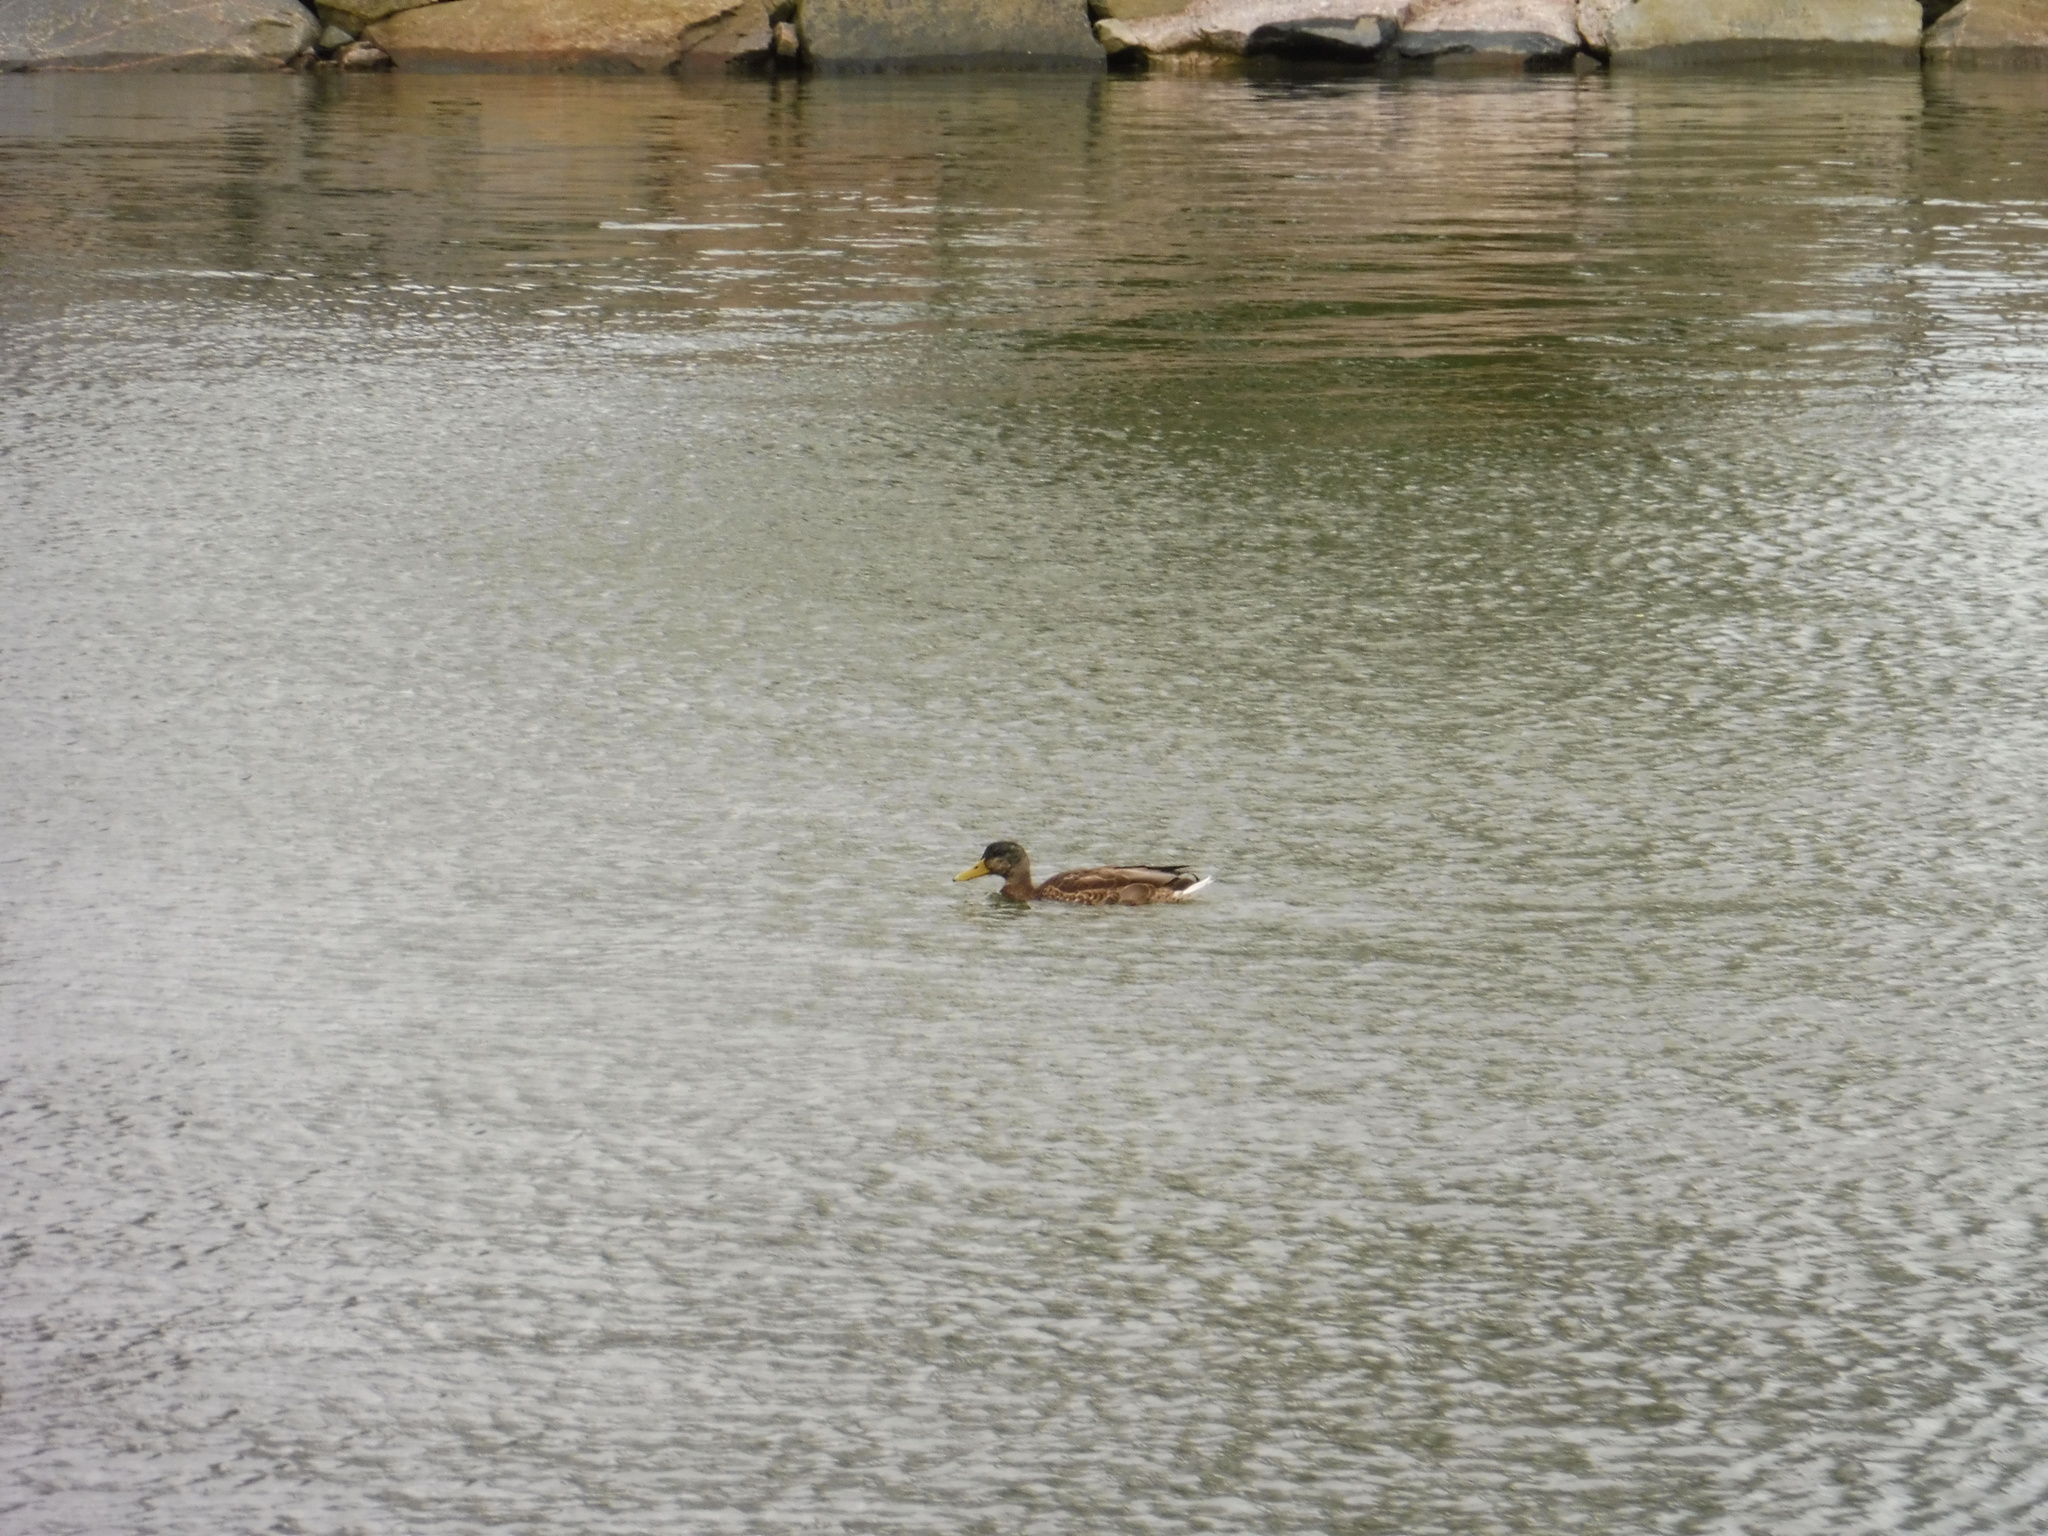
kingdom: Animalia
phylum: Chordata
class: Aves
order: Anseriformes
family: Anatidae
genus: Anas
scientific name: Anas platyrhynchos
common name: Mallard
